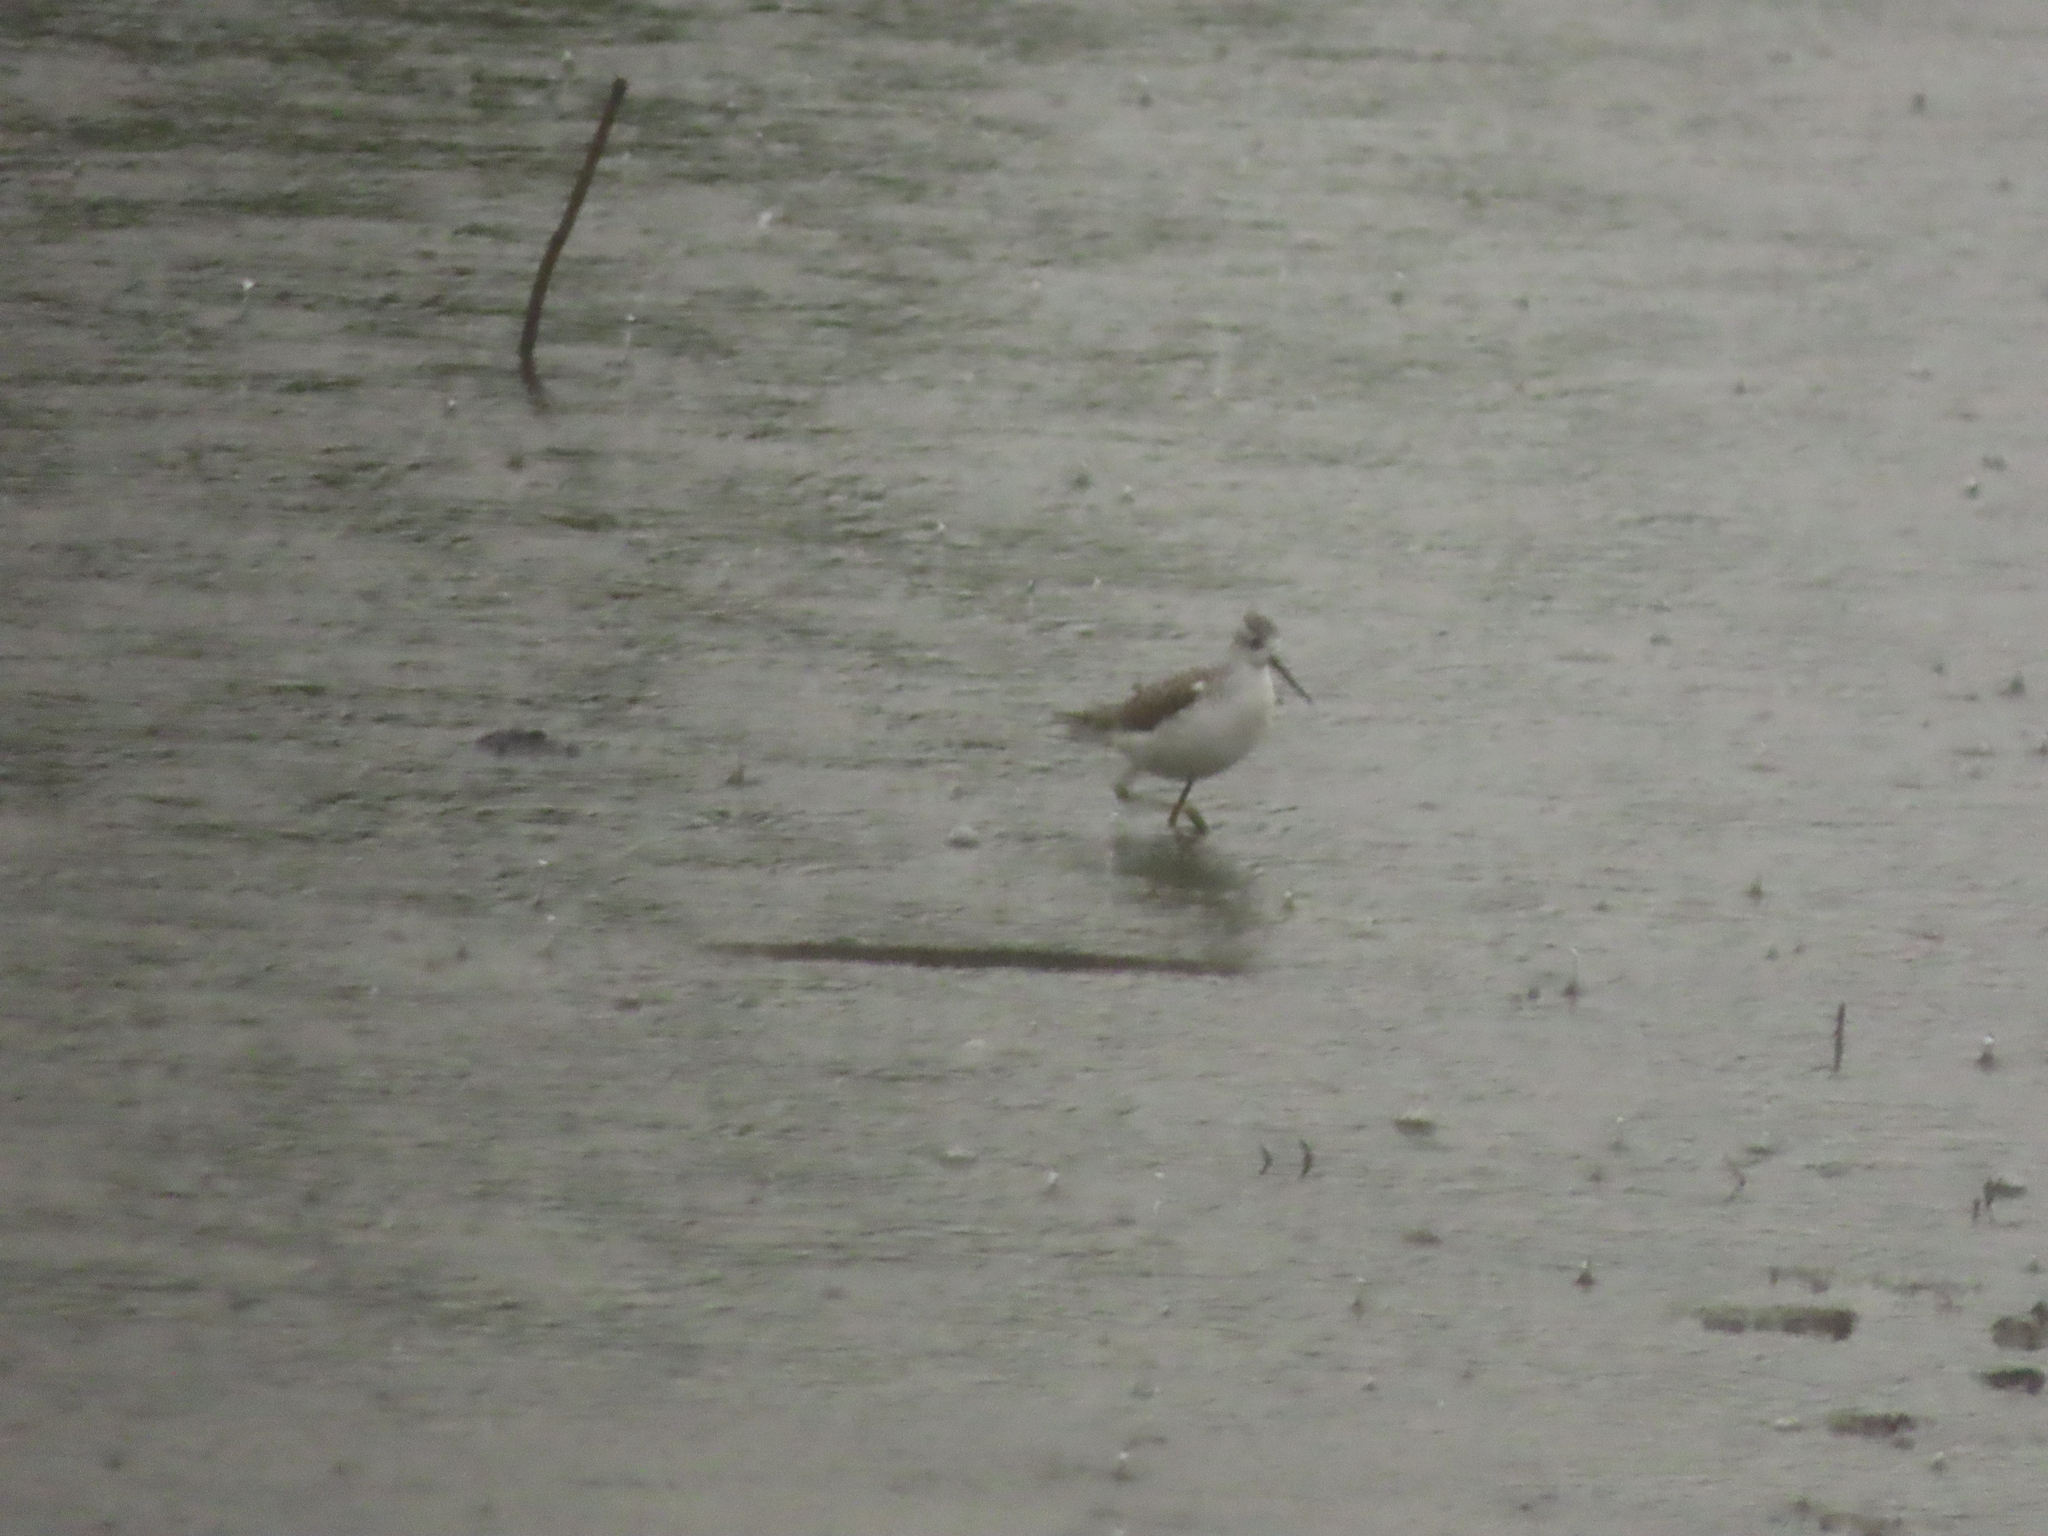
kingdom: Animalia
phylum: Chordata
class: Aves
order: Charadriiformes
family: Scolopacidae
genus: Tringa
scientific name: Tringa stagnatilis
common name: Marsh sandpiper
